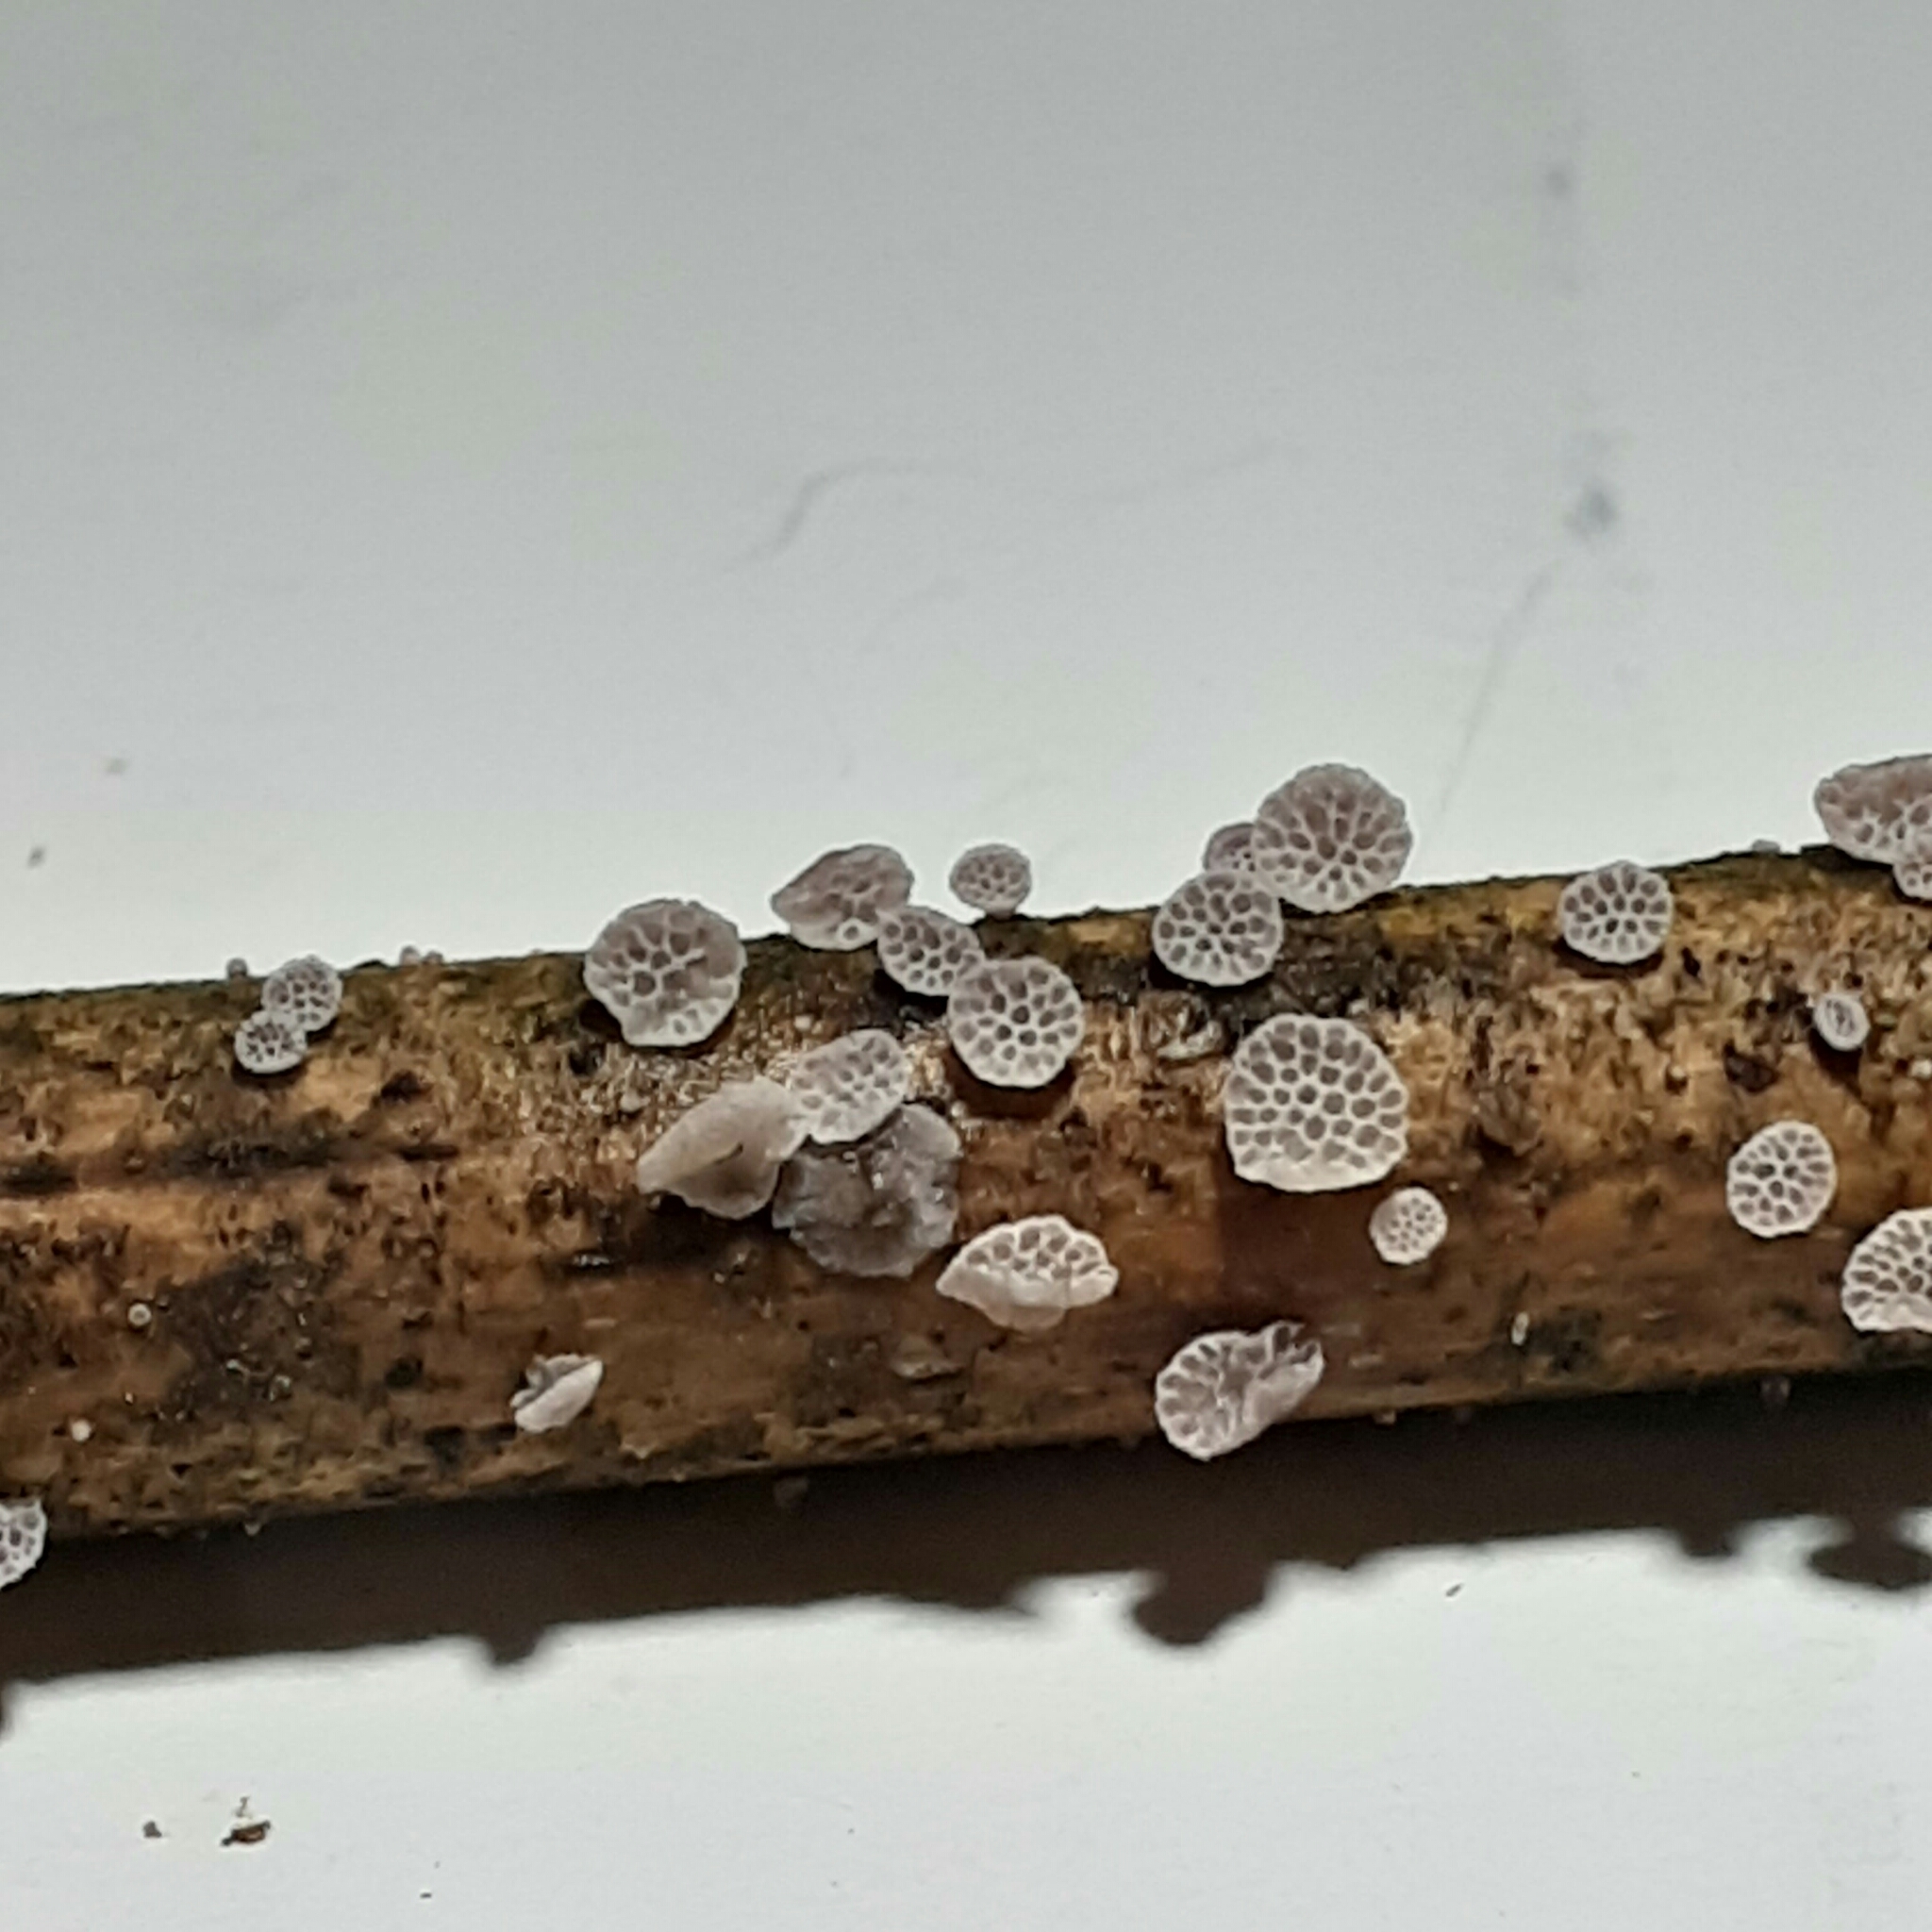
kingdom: Fungi
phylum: Basidiomycota
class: Agaricomycetes
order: Agaricales
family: Mycenaceae
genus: Favolaschia
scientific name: Favolaschia cyatheae
